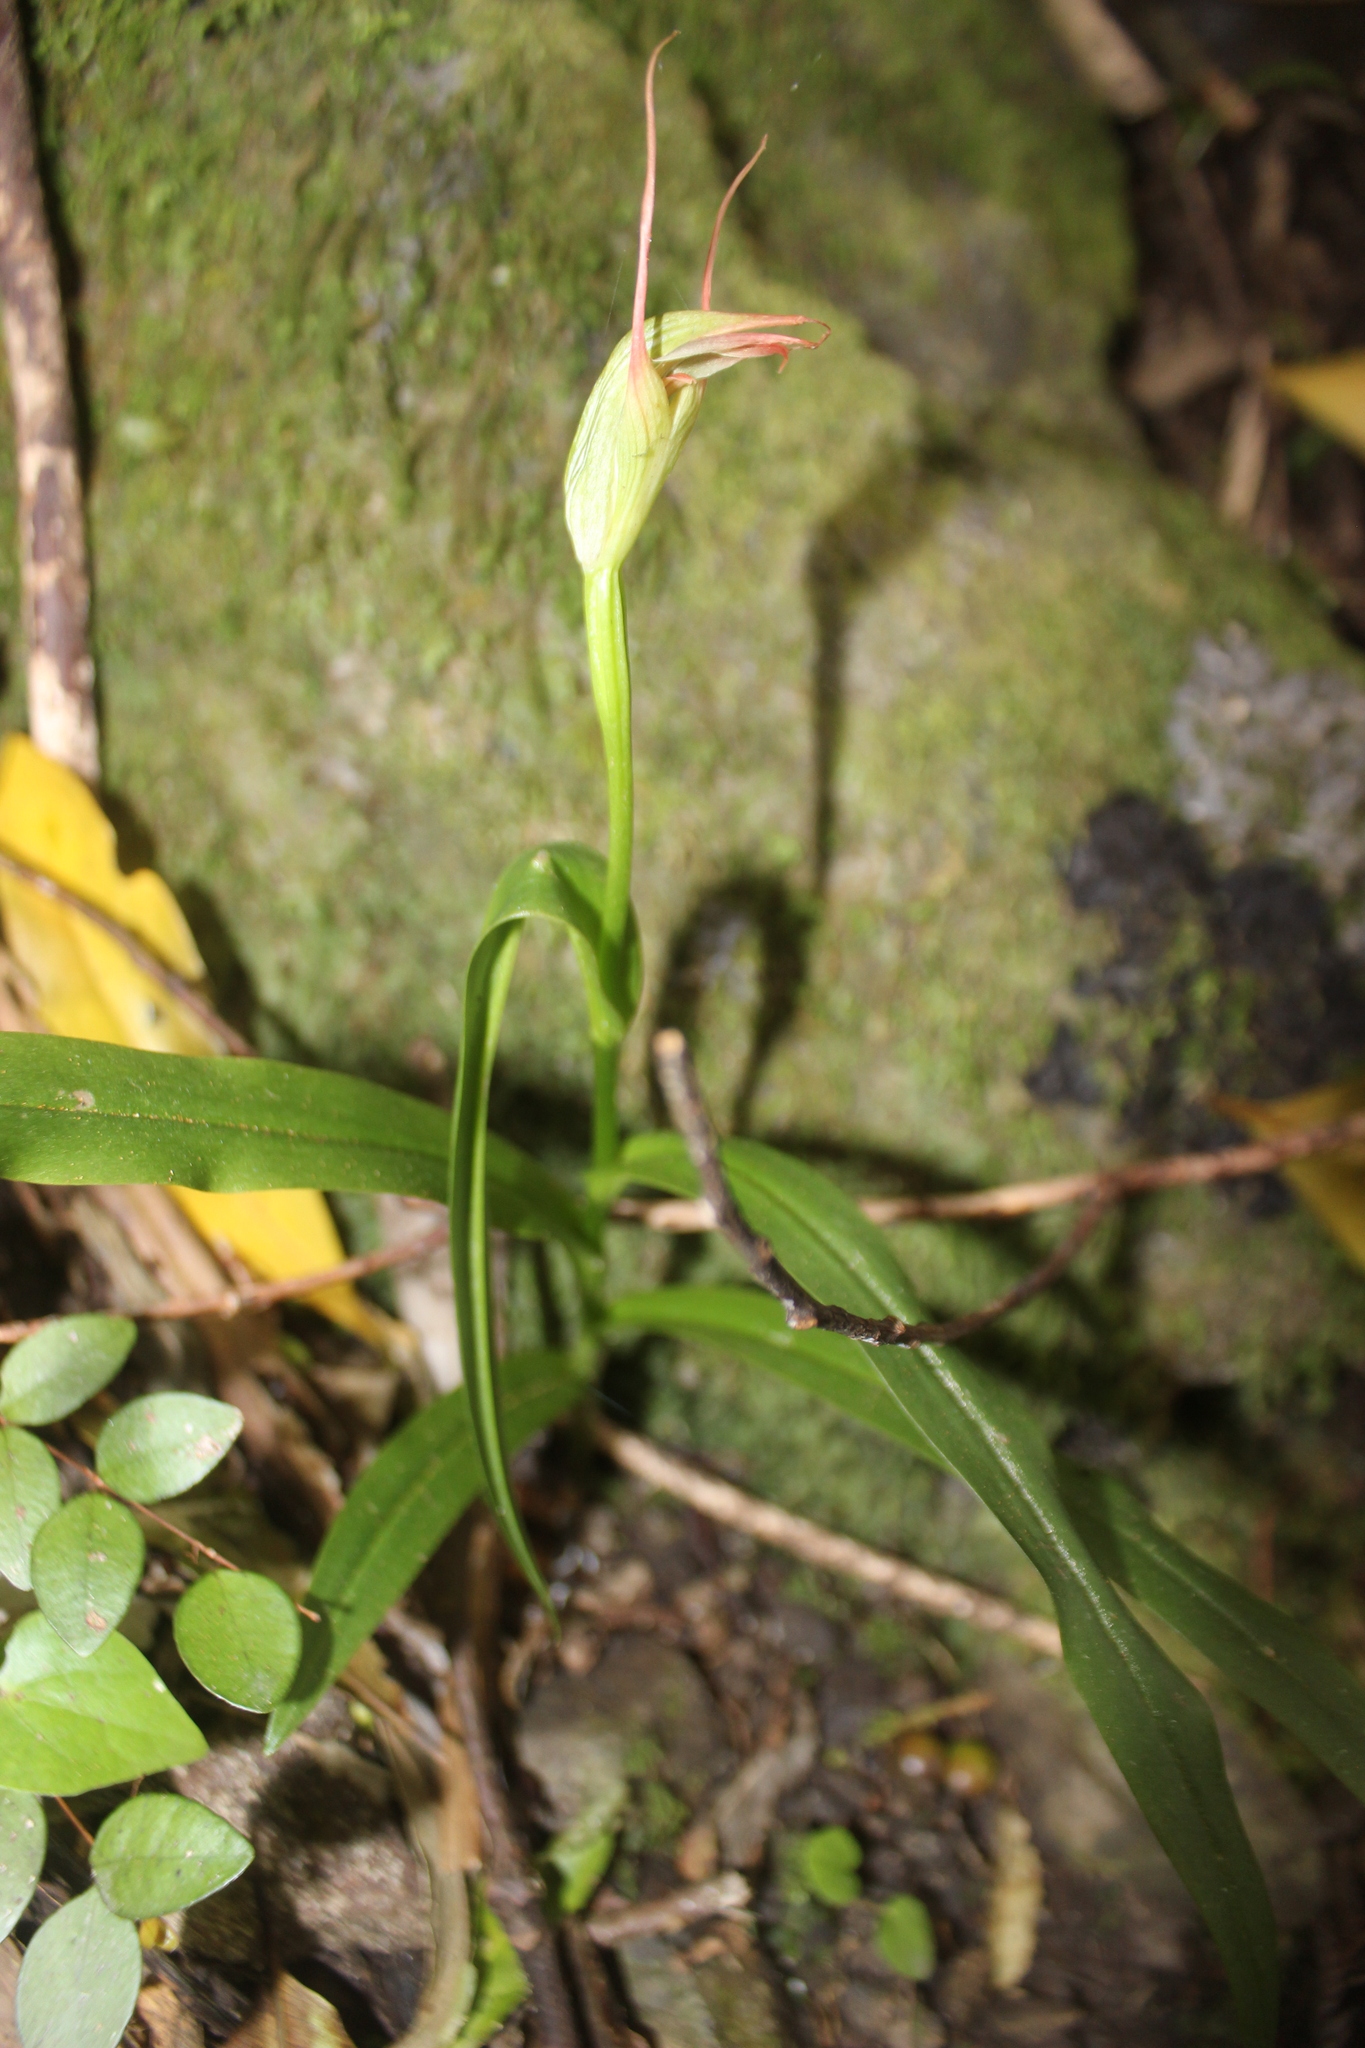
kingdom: Plantae
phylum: Tracheophyta
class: Liliopsida
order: Asparagales
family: Orchidaceae
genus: Pterostylis
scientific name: Pterostylis cardiostigma
